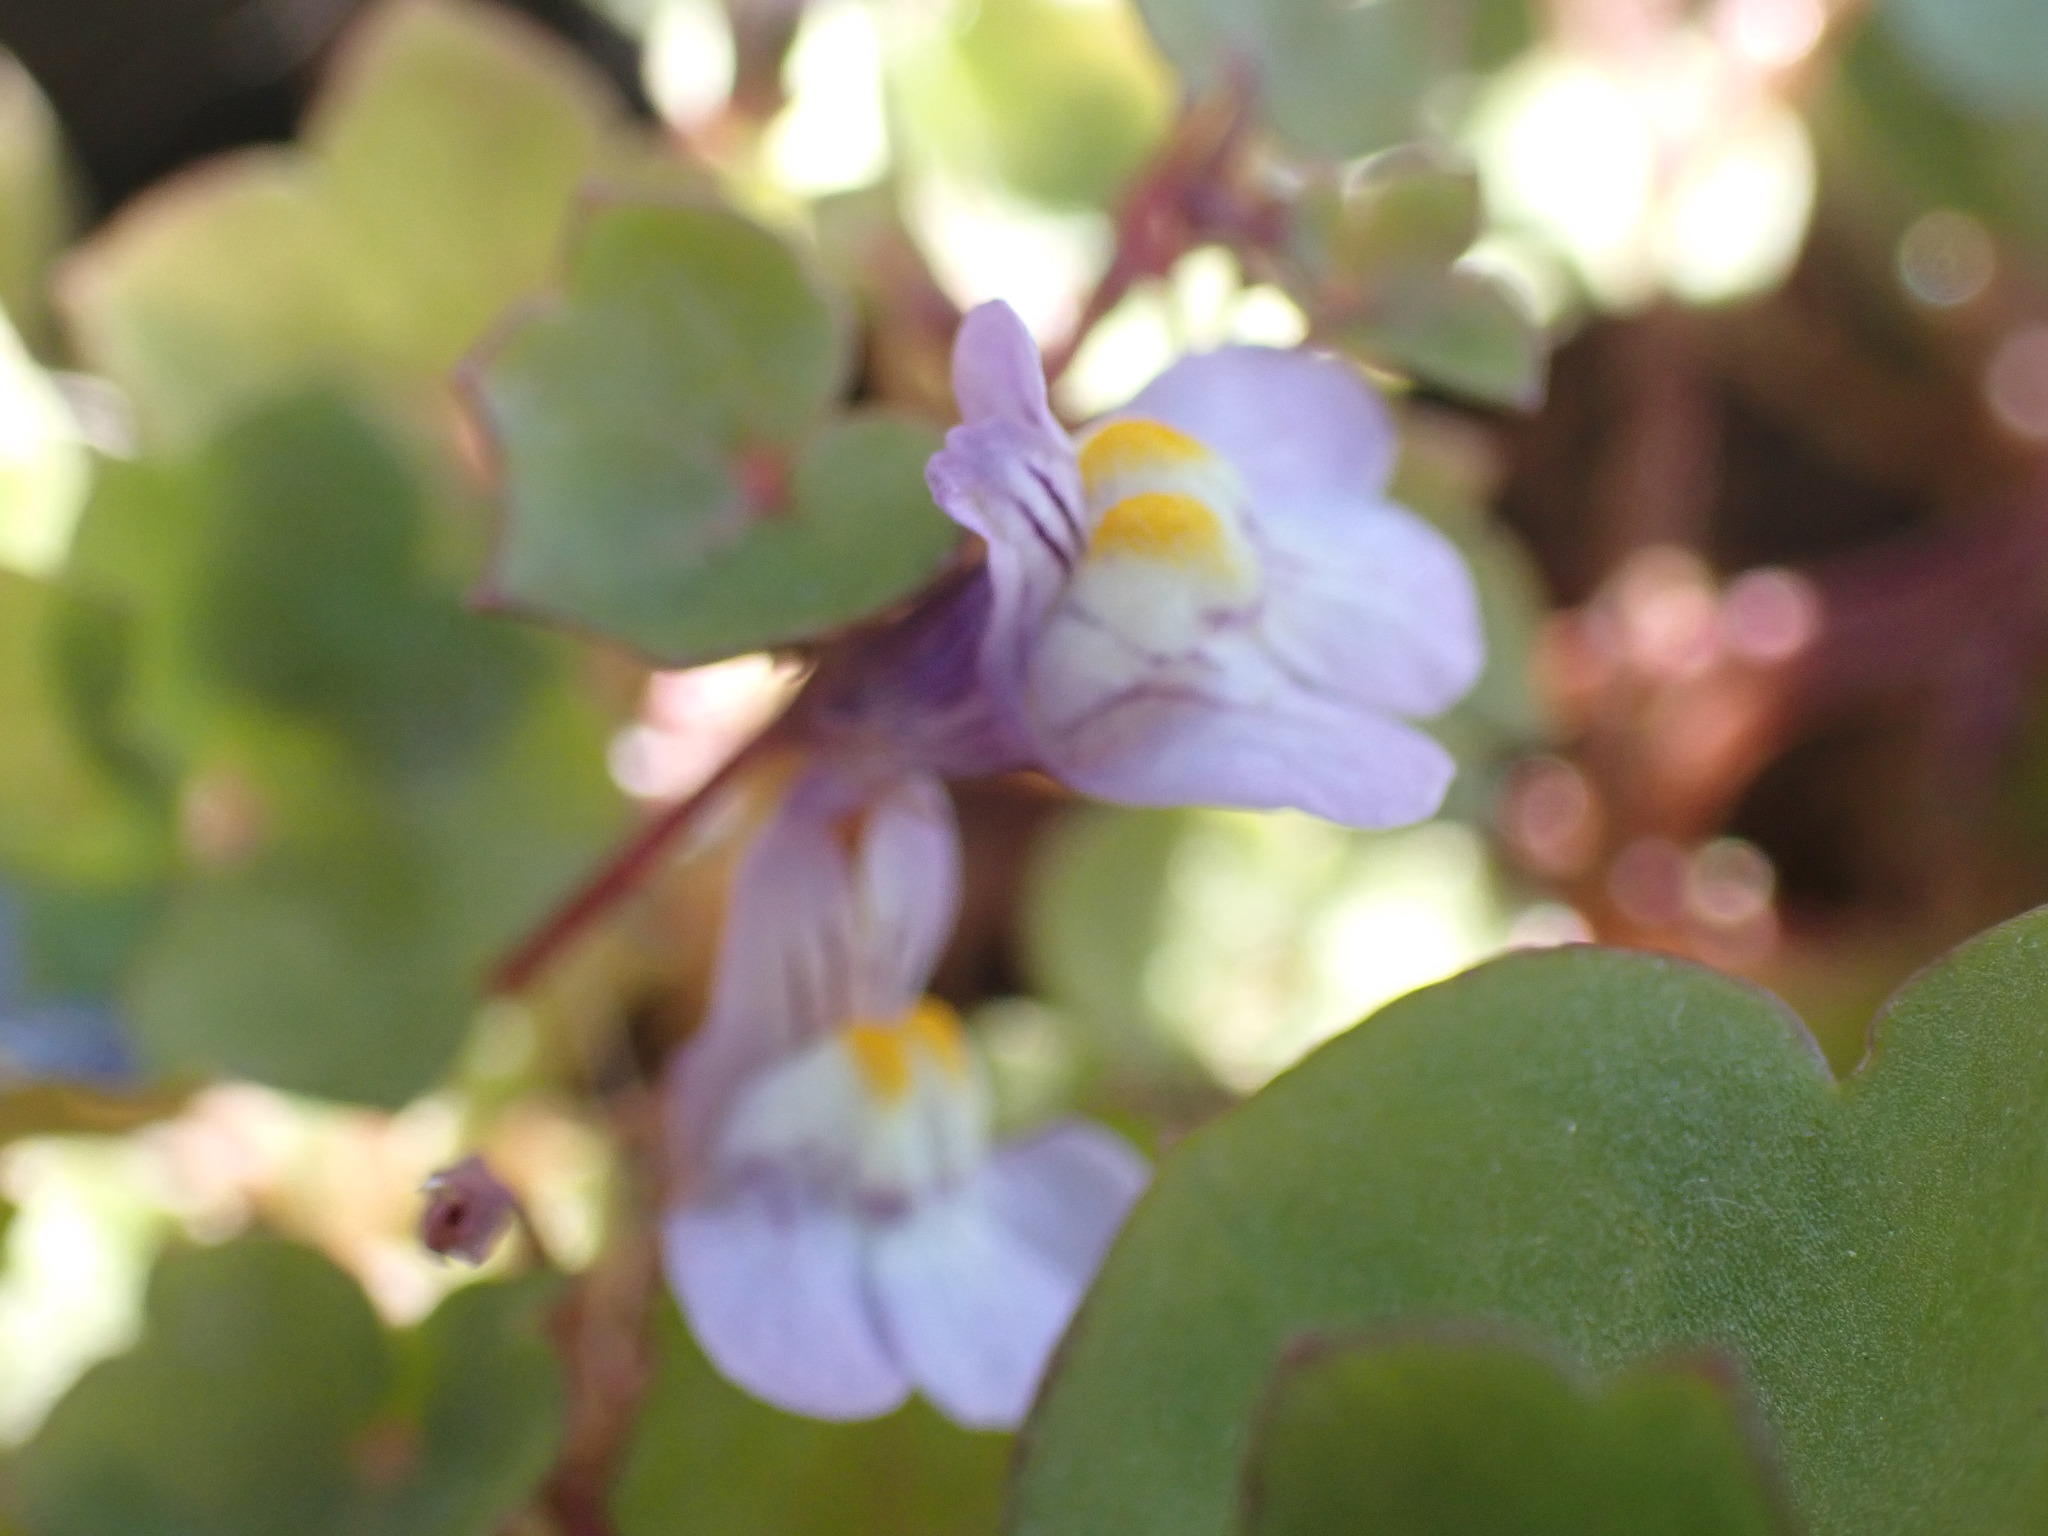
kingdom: Plantae
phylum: Tracheophyta
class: Magnoliopsida
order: Lamiales
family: Plantaginaceae
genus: Cymbalaria
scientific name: Cymbalaria muralis
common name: Ivy-leaved toadflax
